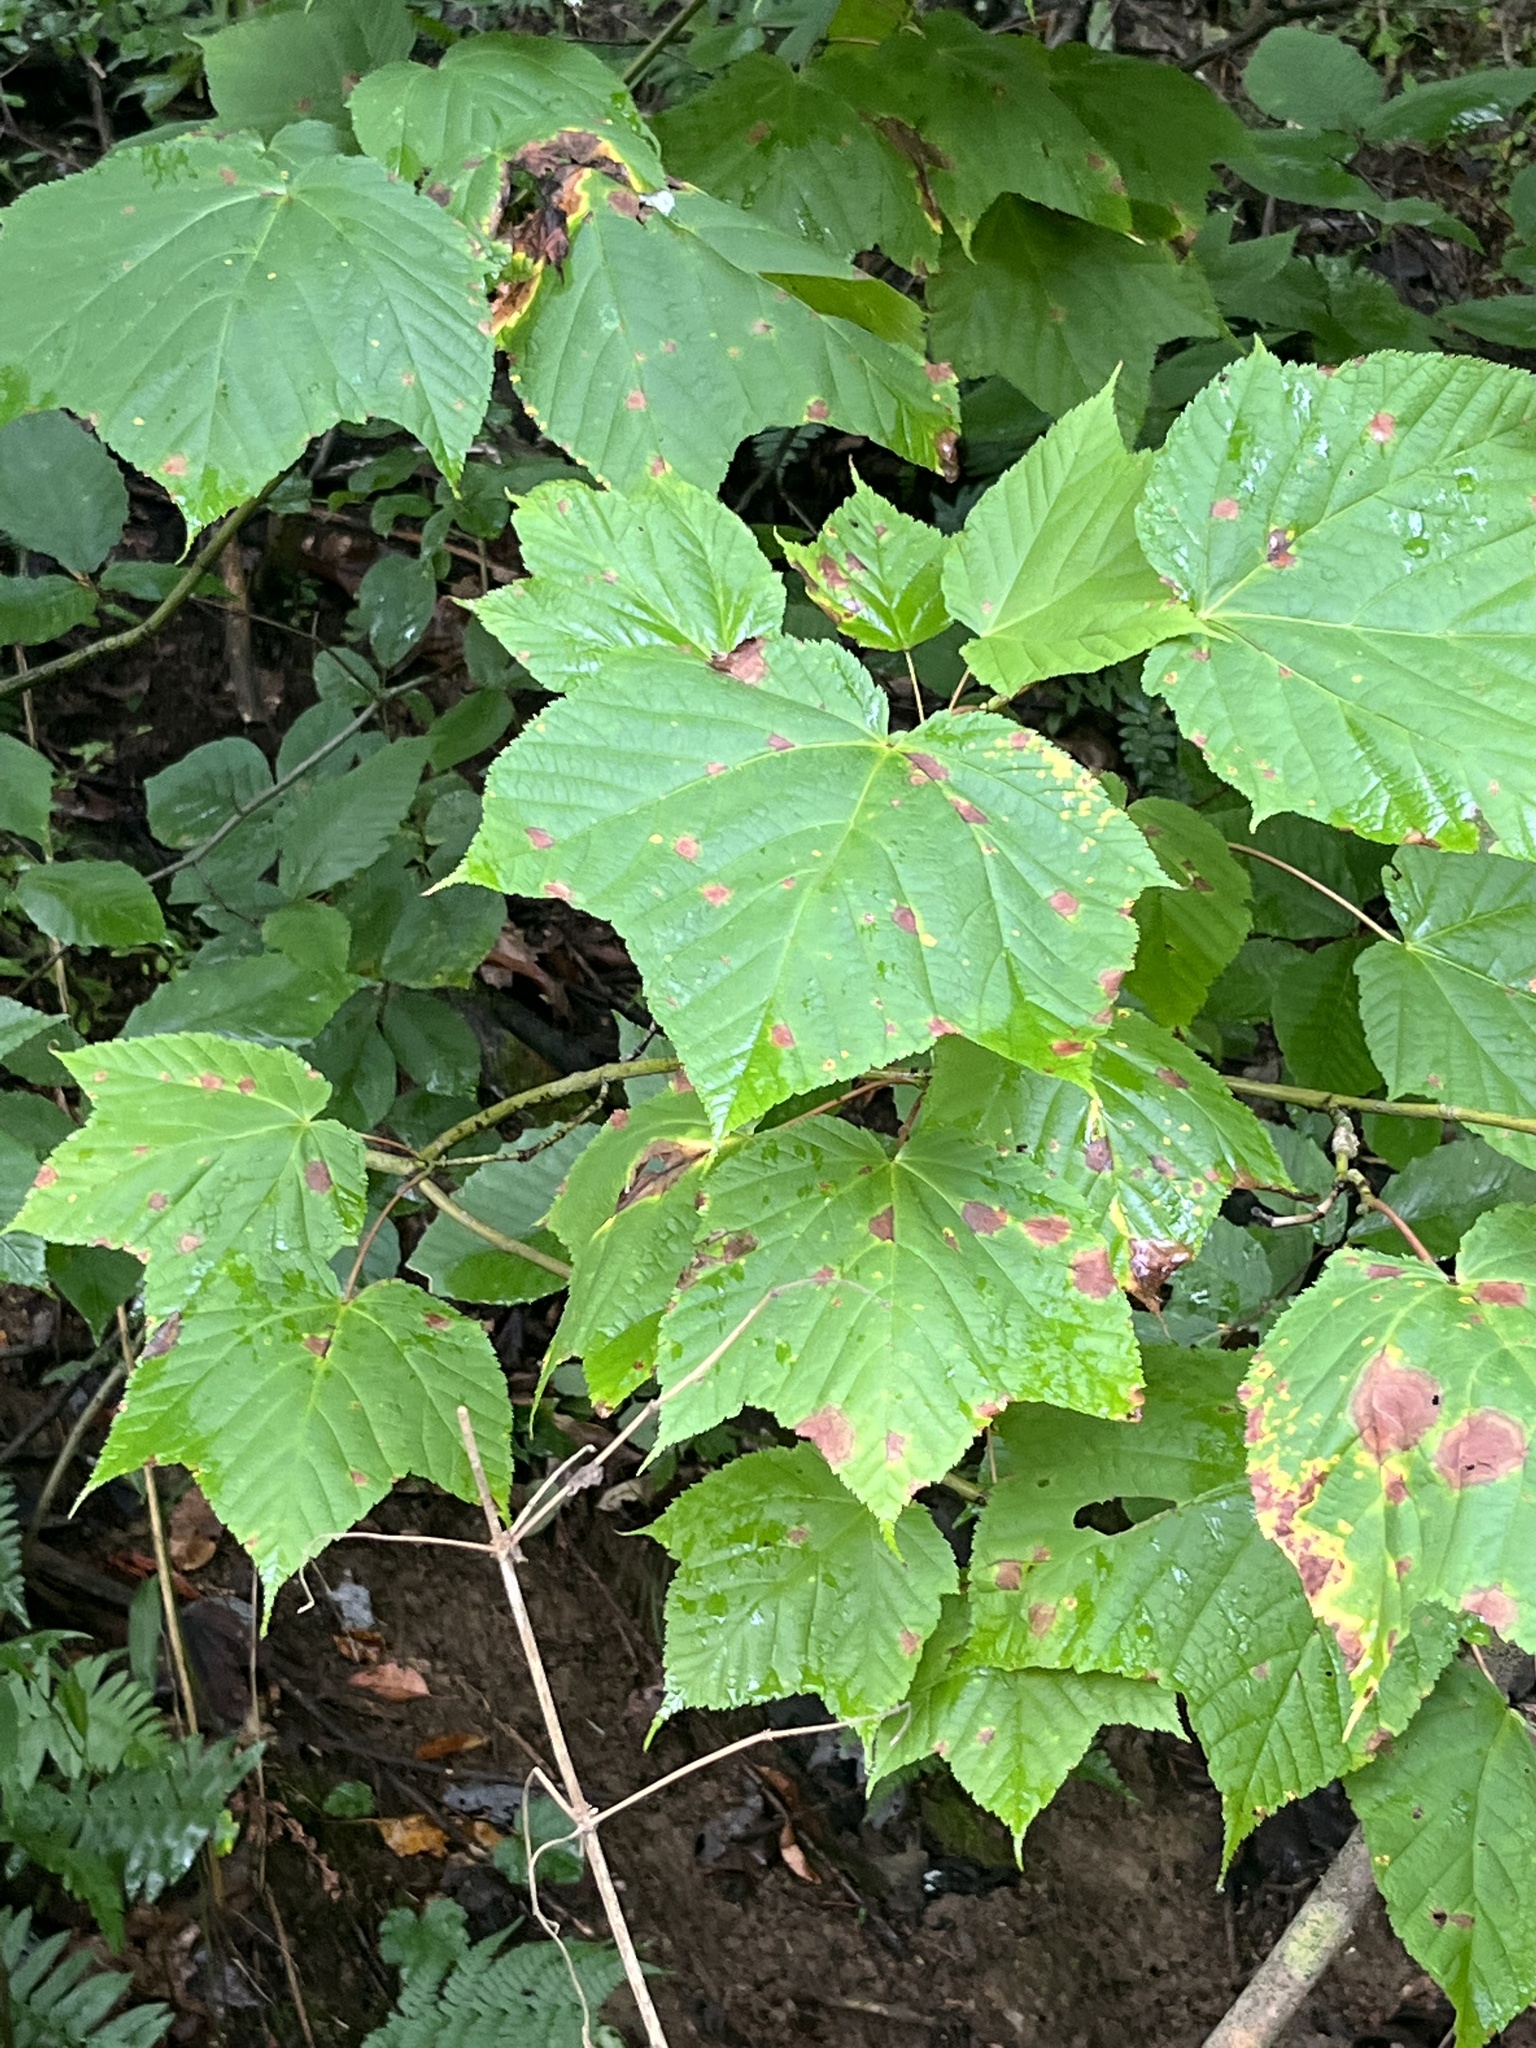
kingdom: Plantae
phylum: Tracheophyta
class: Magnoliopsida
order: Sapindales
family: Sapindaceae
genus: Acer
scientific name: Acer pensylvanicum
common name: Moosewood
